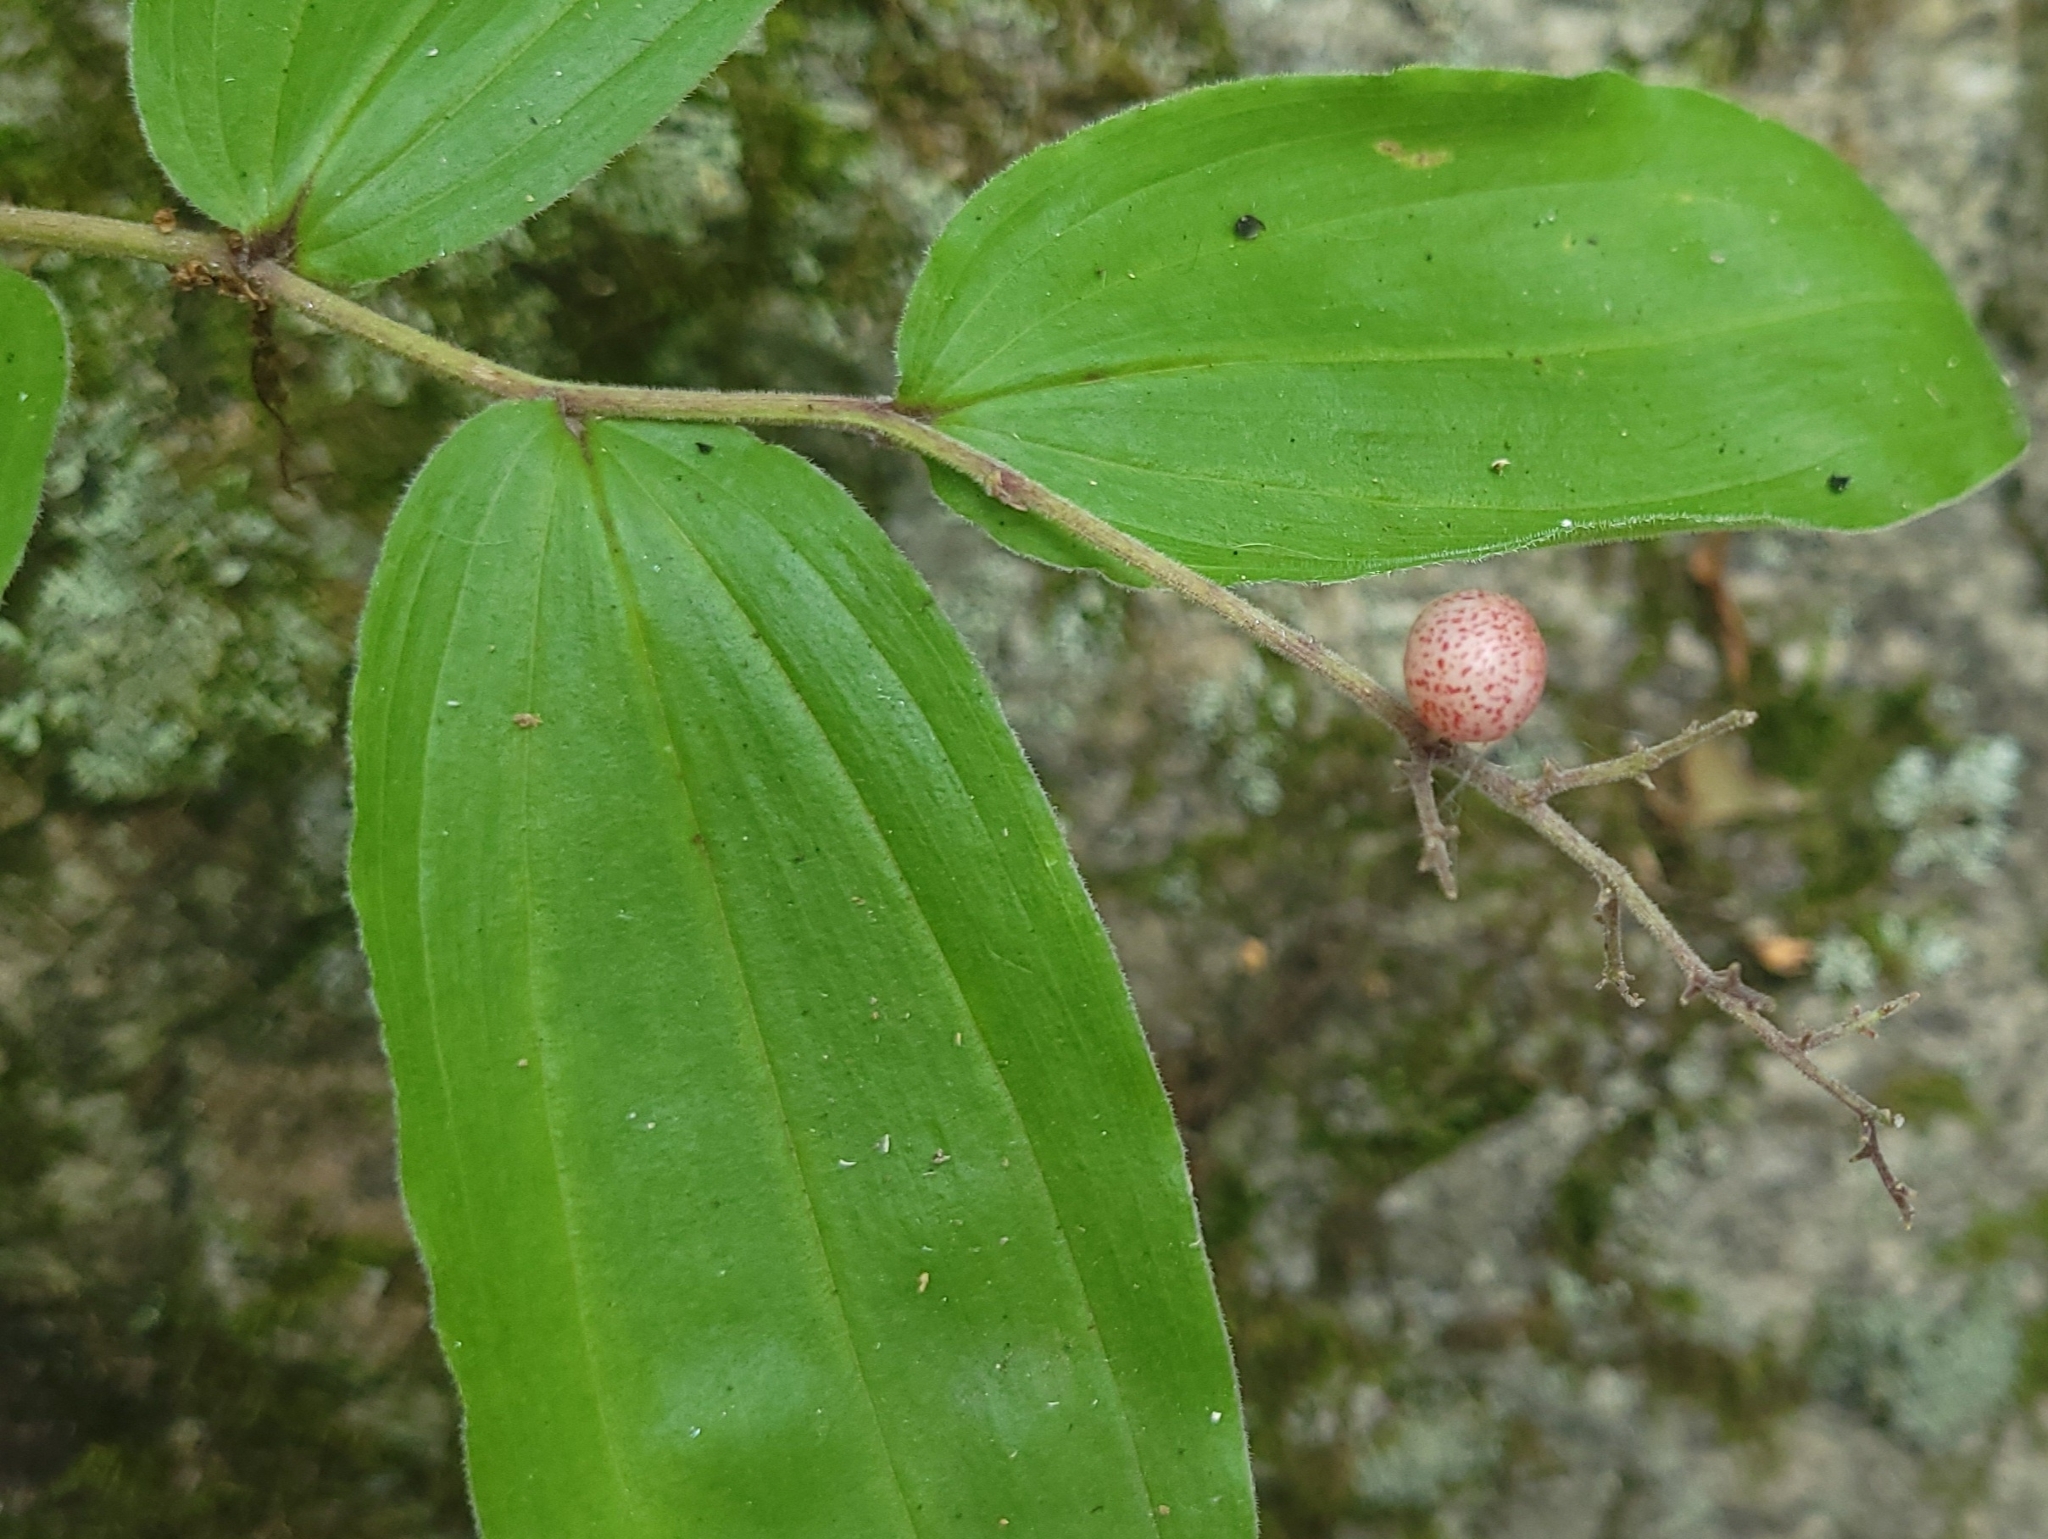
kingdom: Plantae
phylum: Tracheophyta
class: Liliopsida
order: Asparagales
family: Asparagaceae
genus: Maianthemum
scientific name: Maianthemum racemosum
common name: False spikenard
